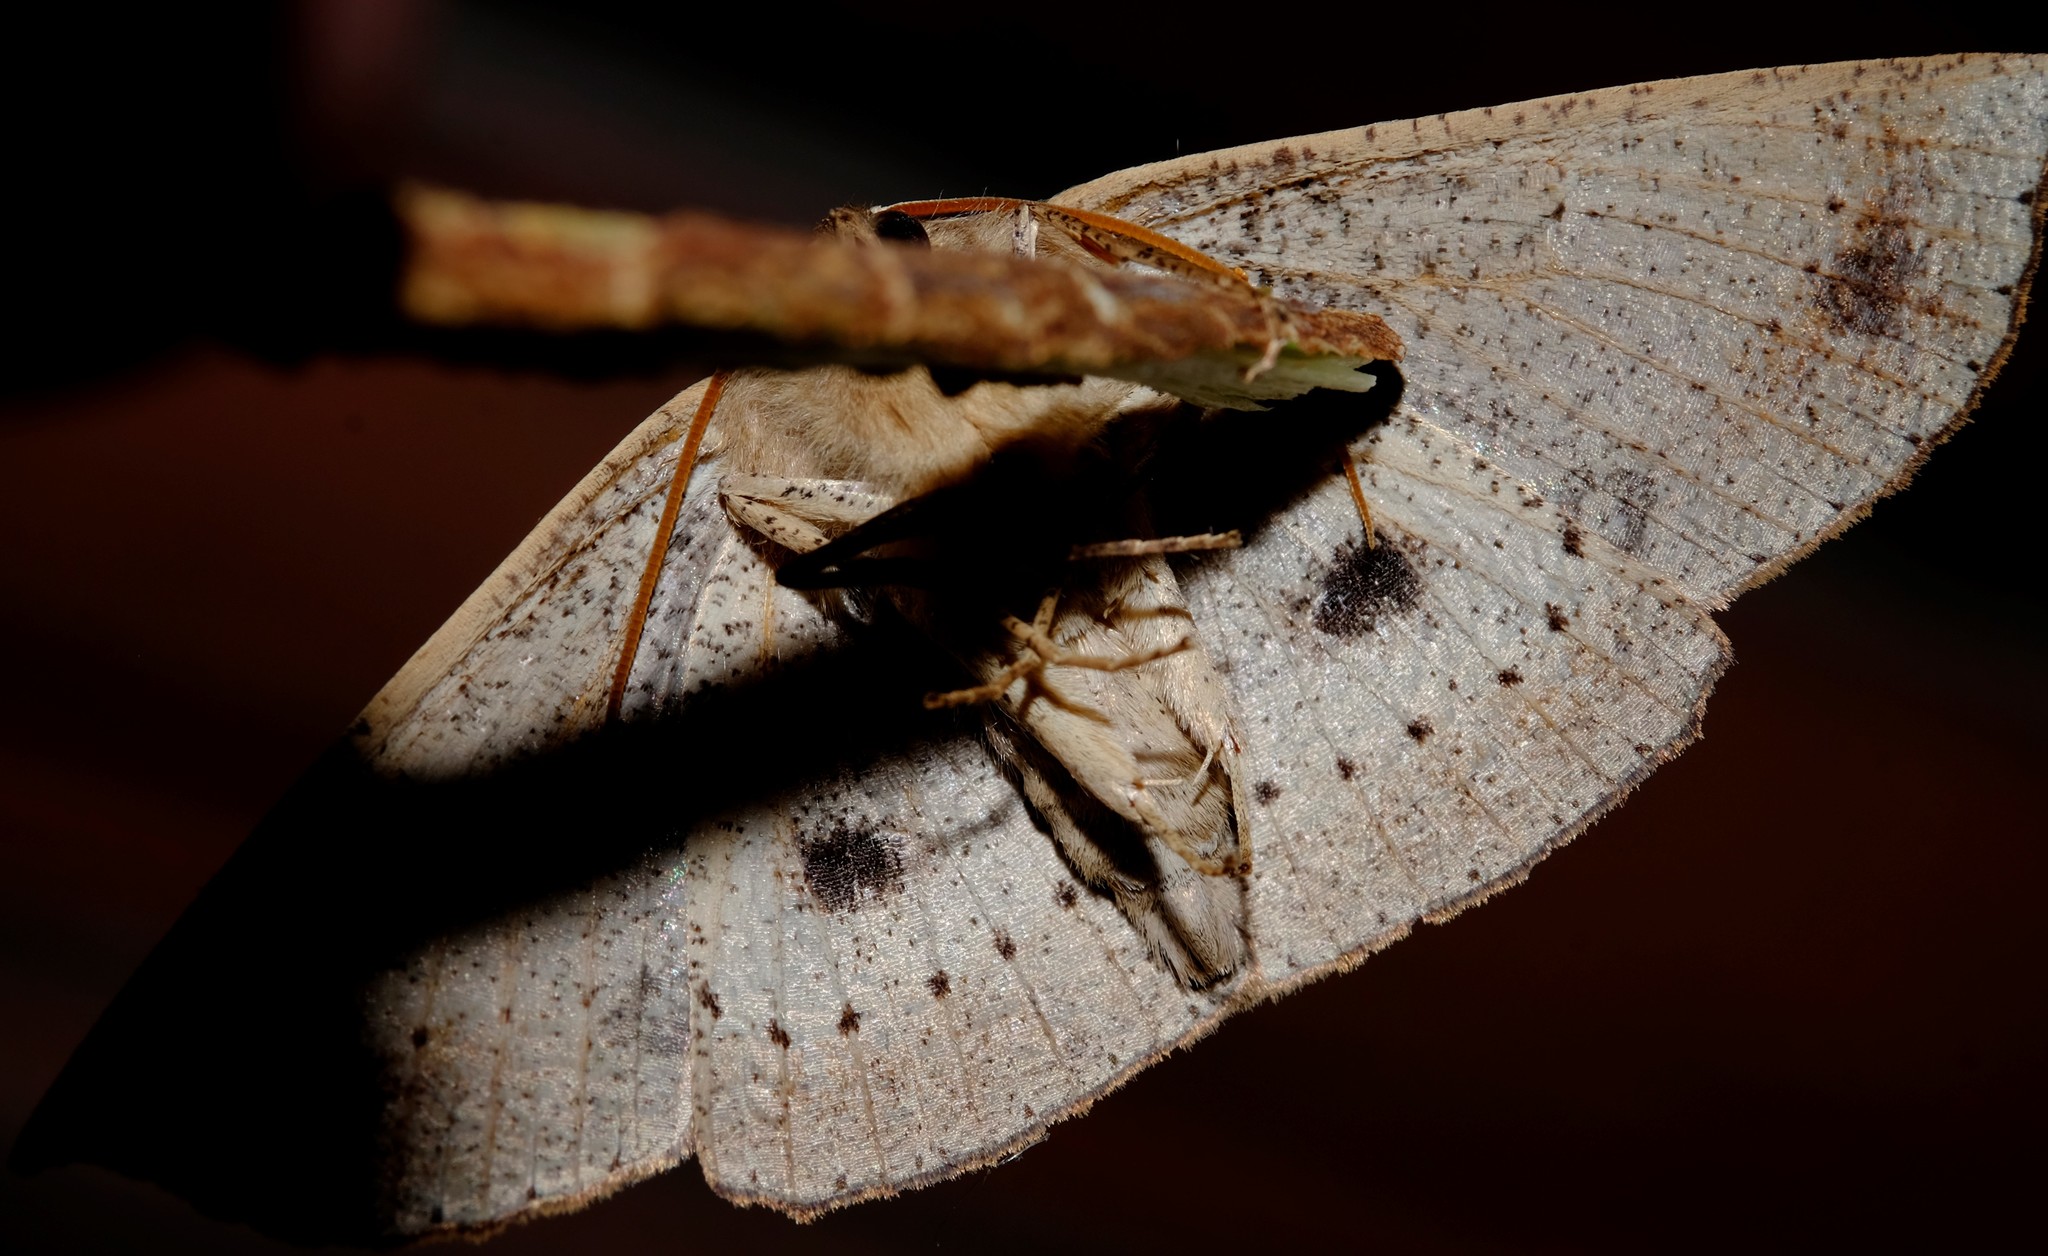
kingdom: Animalia
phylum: Arthropoda
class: Insecta
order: Lepidoptera
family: Geometridae
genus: Idiodes
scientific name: Idiodes siculoides
